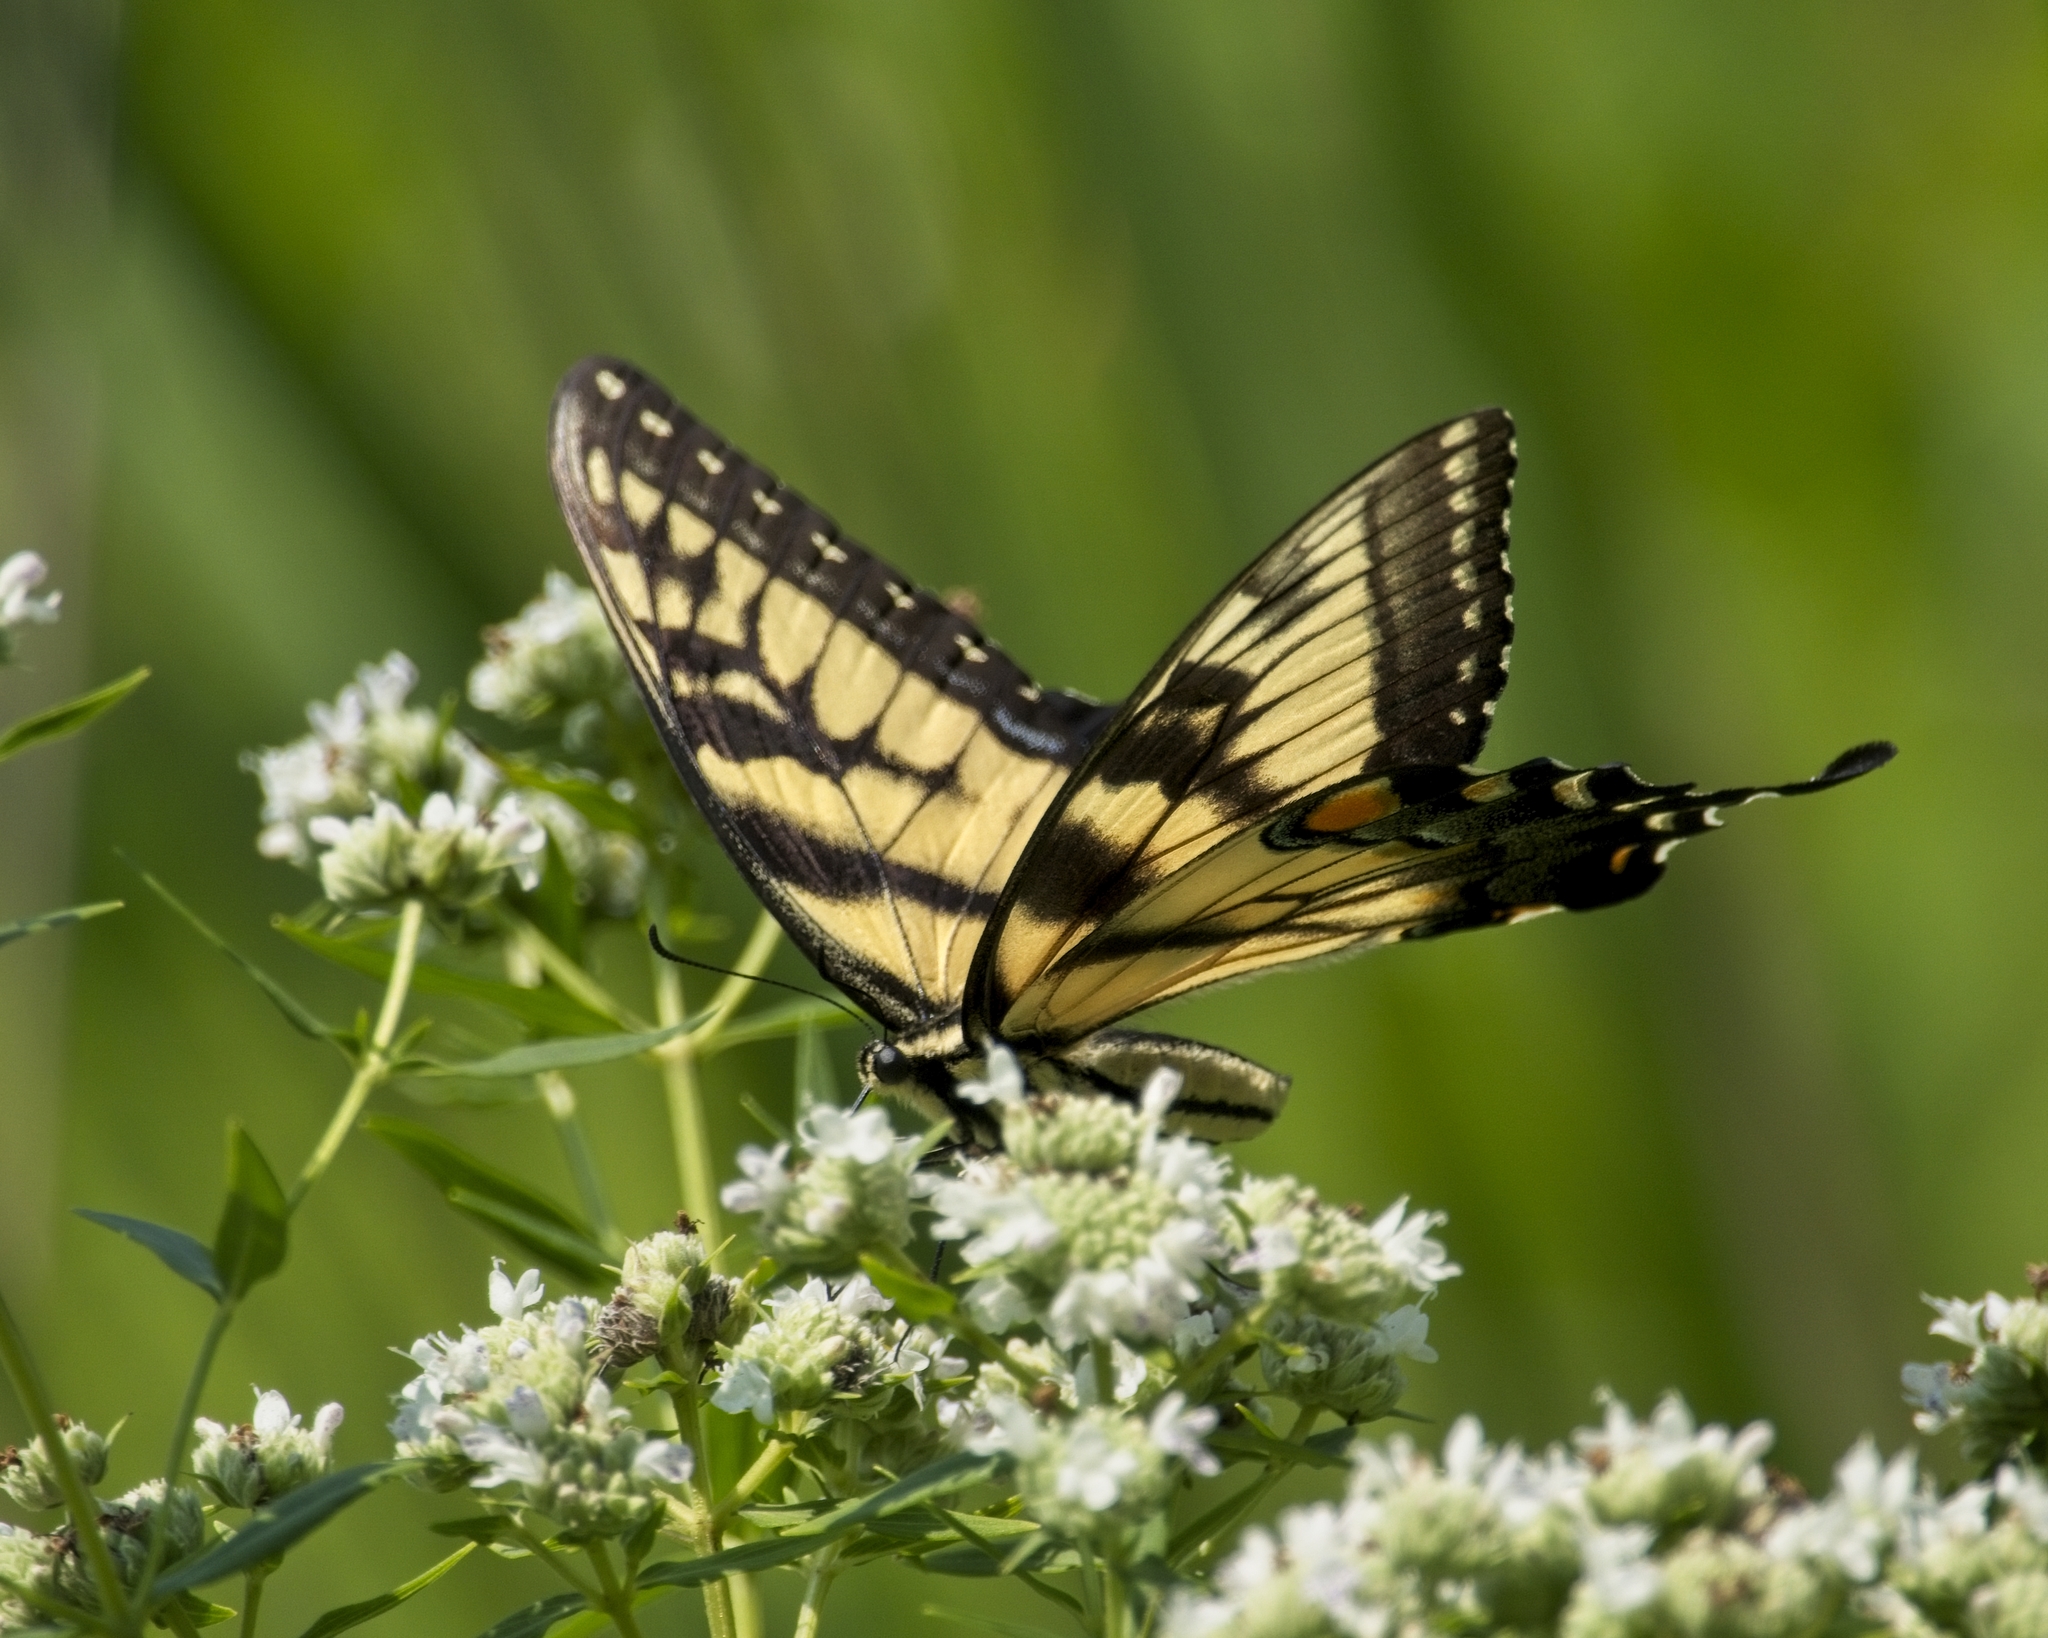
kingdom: Animalia
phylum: Arthropoda
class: Insecta
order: Lepidoptera
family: Papilionidae
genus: Papilio
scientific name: Papilio glaucus
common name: Tiger swallowtail
